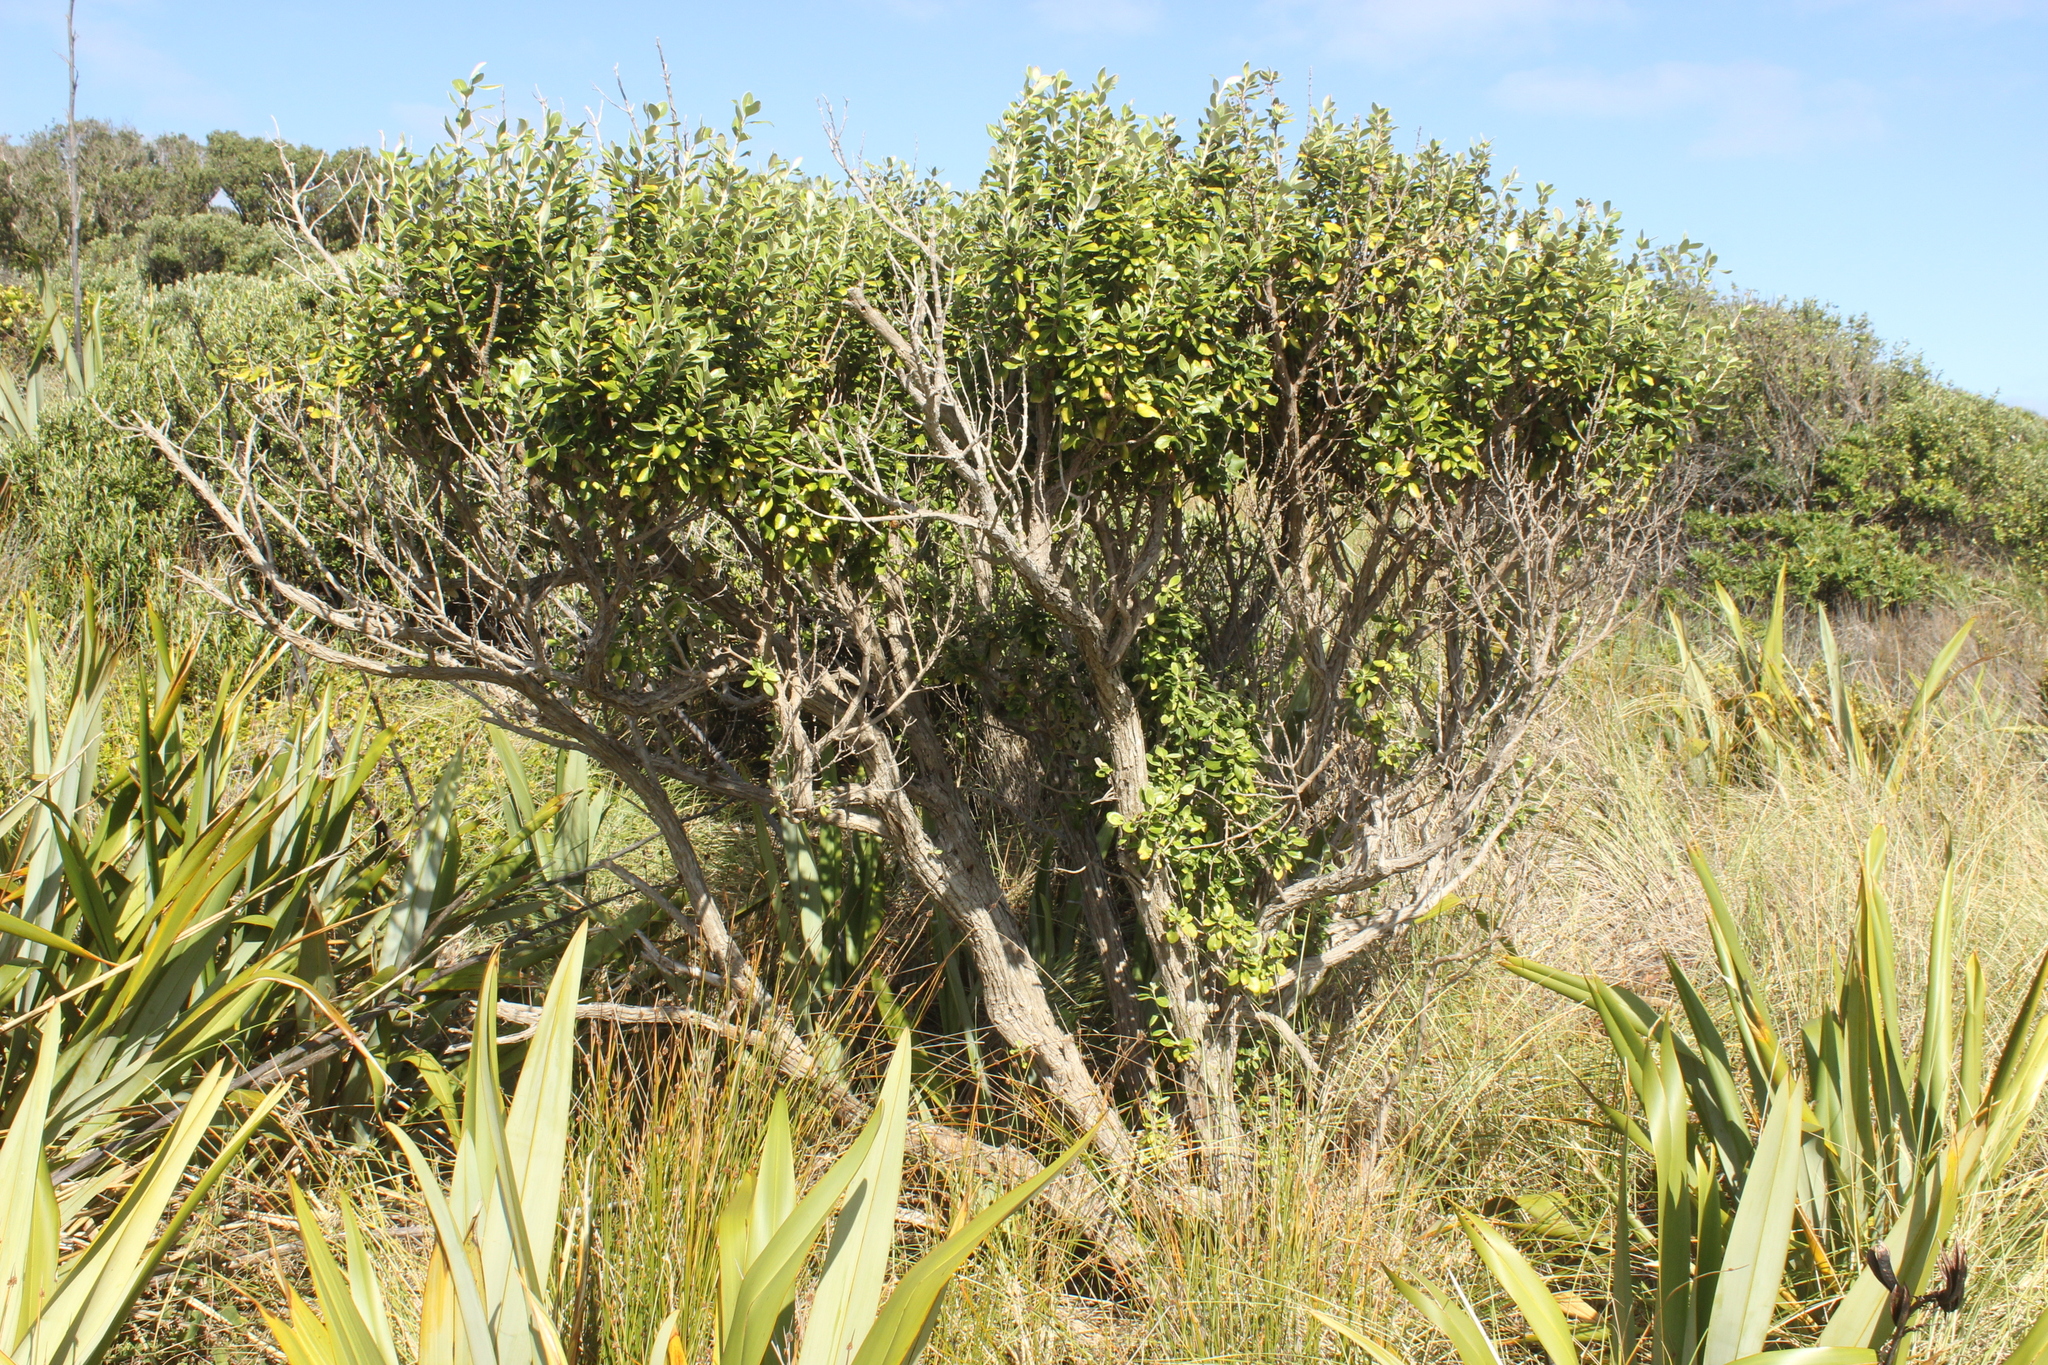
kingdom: Plantae
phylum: Tracheophyta
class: Magnoliopsida
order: Asterales
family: Asteraceae
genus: Olearia
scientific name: Olearia traversiorum
